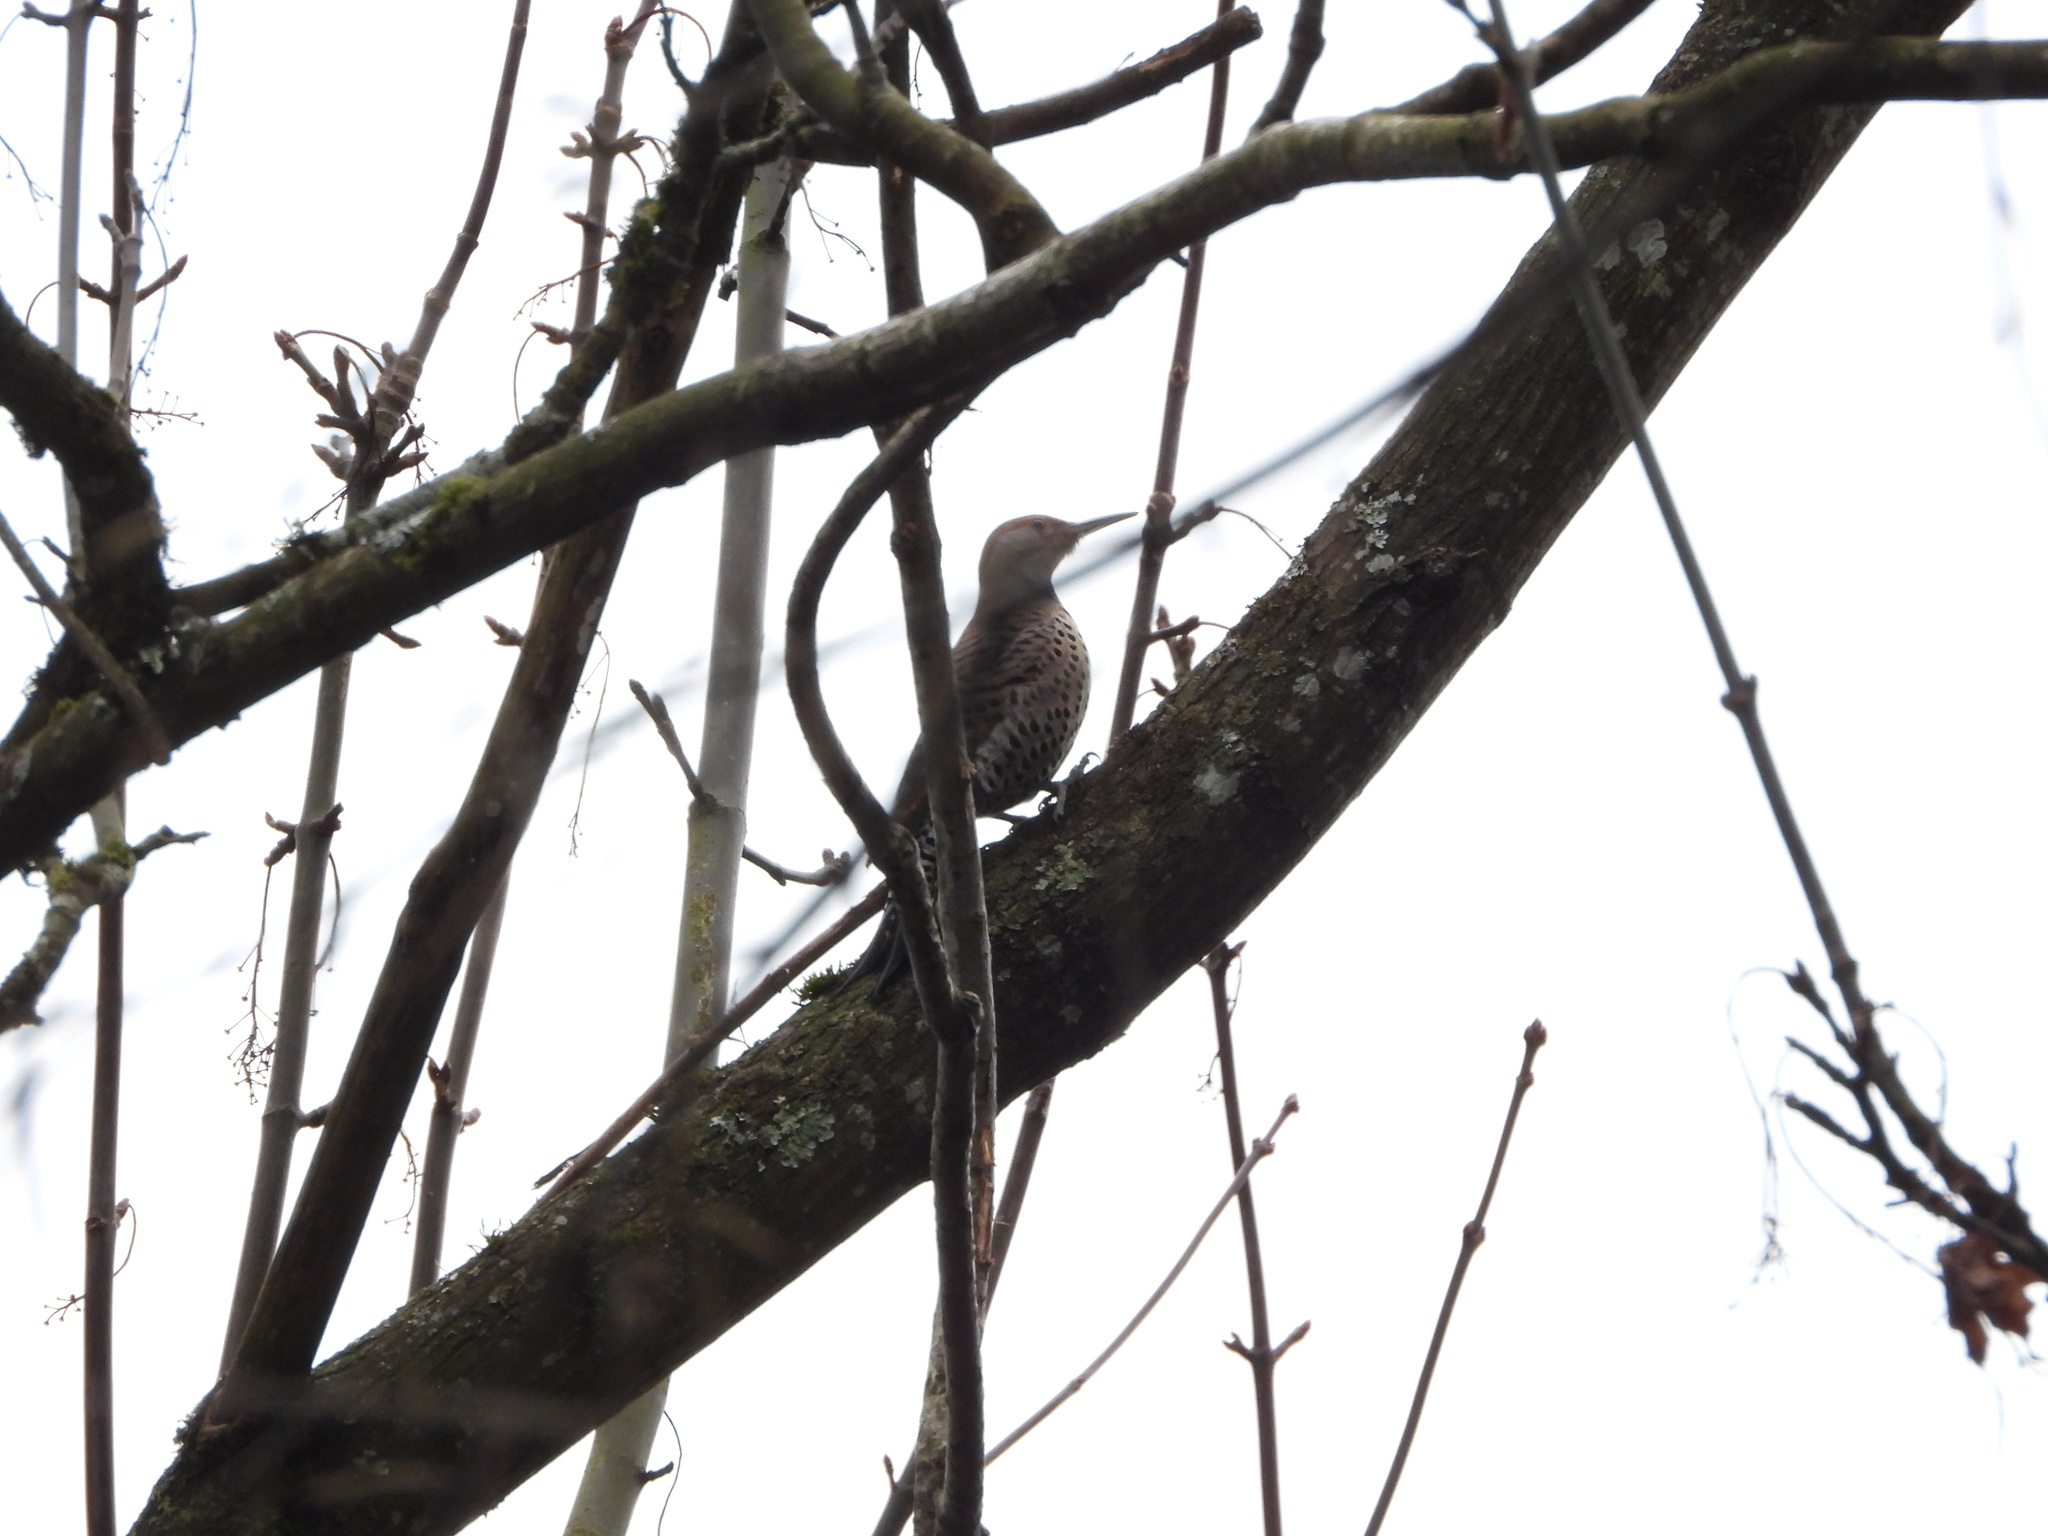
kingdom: Animalia
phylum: Chordata
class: Aves
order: Piciformes
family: Picidae
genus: Colaptes
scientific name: Colaptes auratus
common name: Northern flicker
